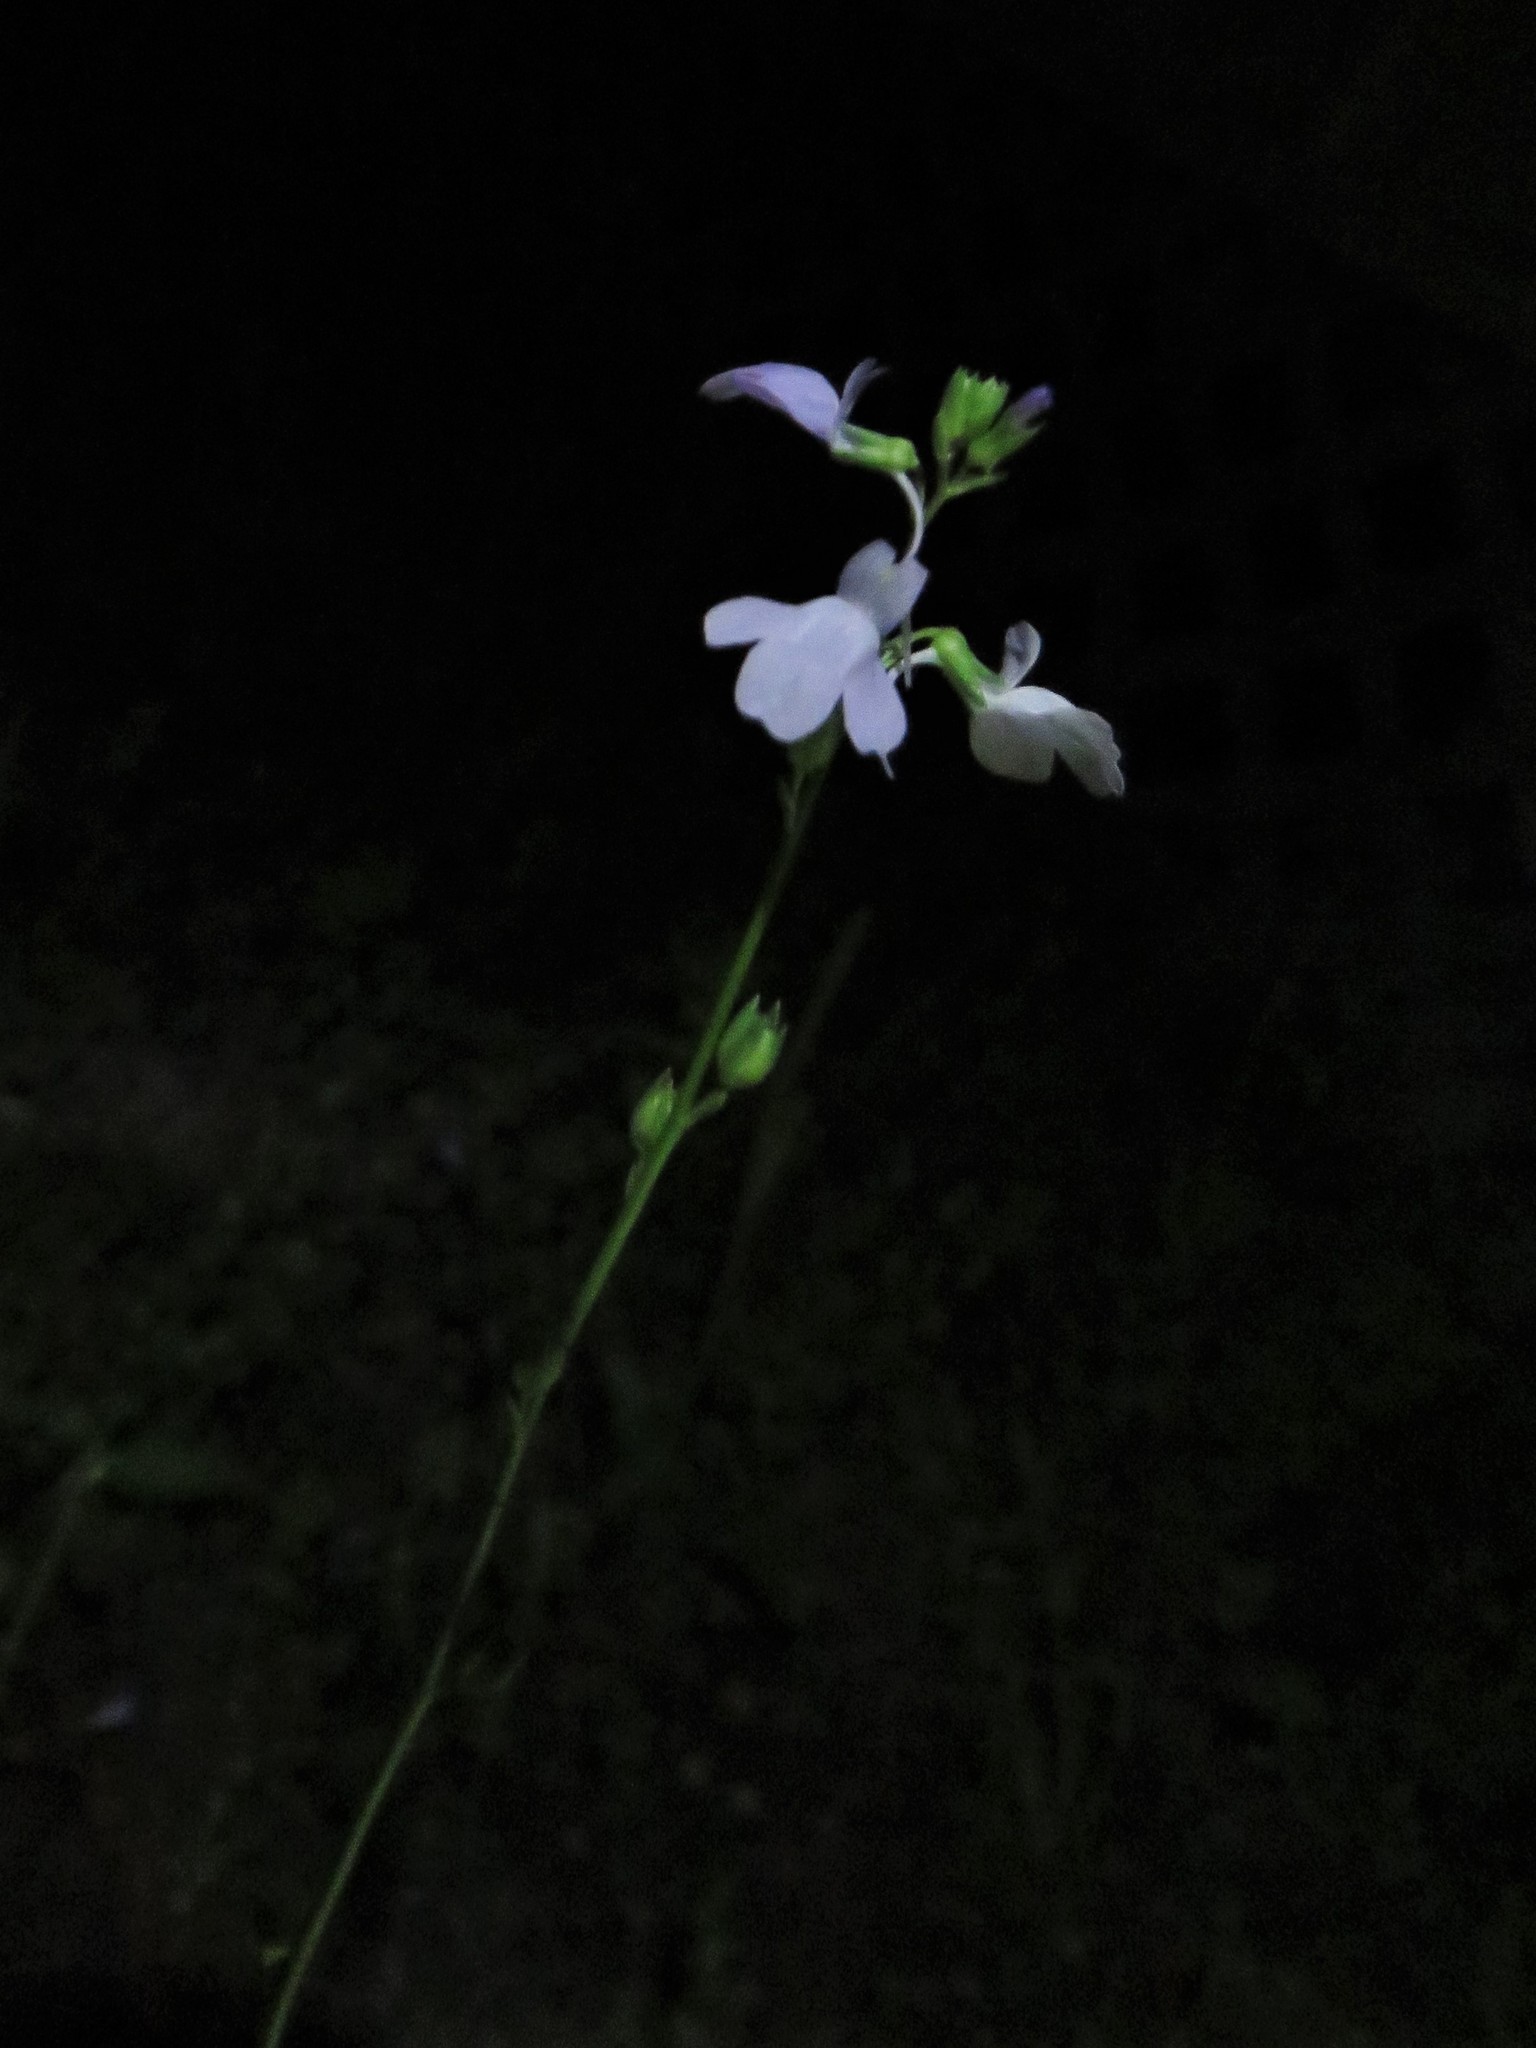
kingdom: Plantae
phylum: Tracheophyta
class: Magnoliopsida
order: Lamiales
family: Plantaginaceae
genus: Nuttallanthus
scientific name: Nuttallanthus texanus
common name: Texas toadflax
